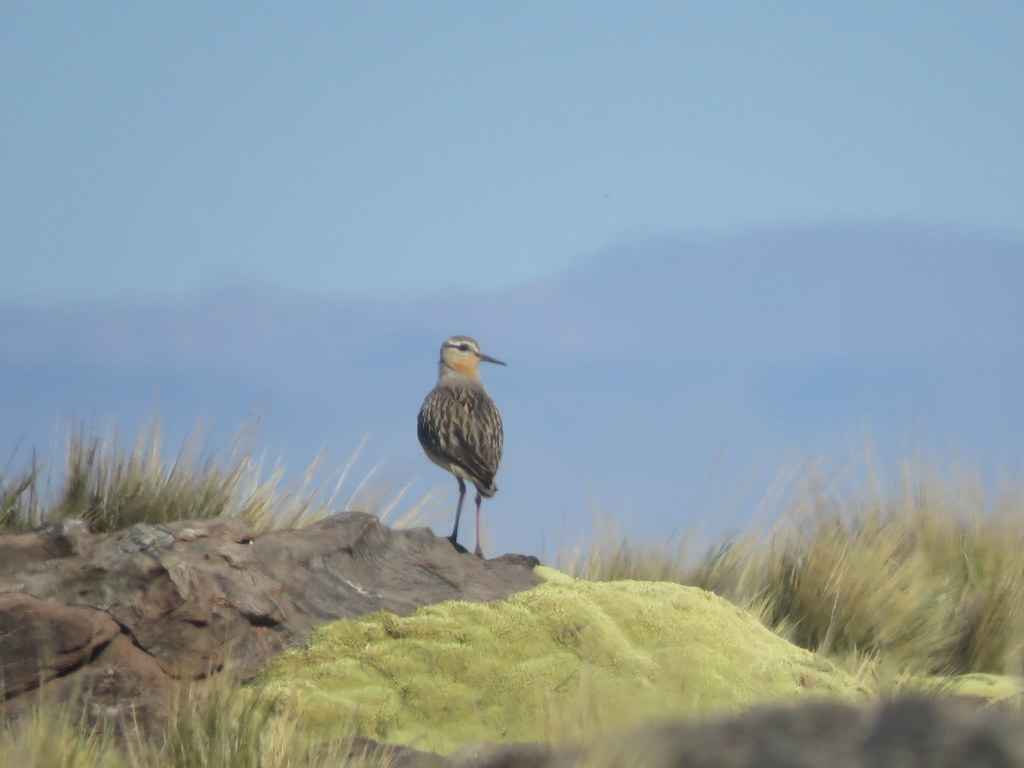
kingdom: Animalia
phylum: Chordata
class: Aves
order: Charadriiformes
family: Charadriidae
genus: Oreopholus
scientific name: Oreopholus ruficollis
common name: Tawny-throated dotterel
